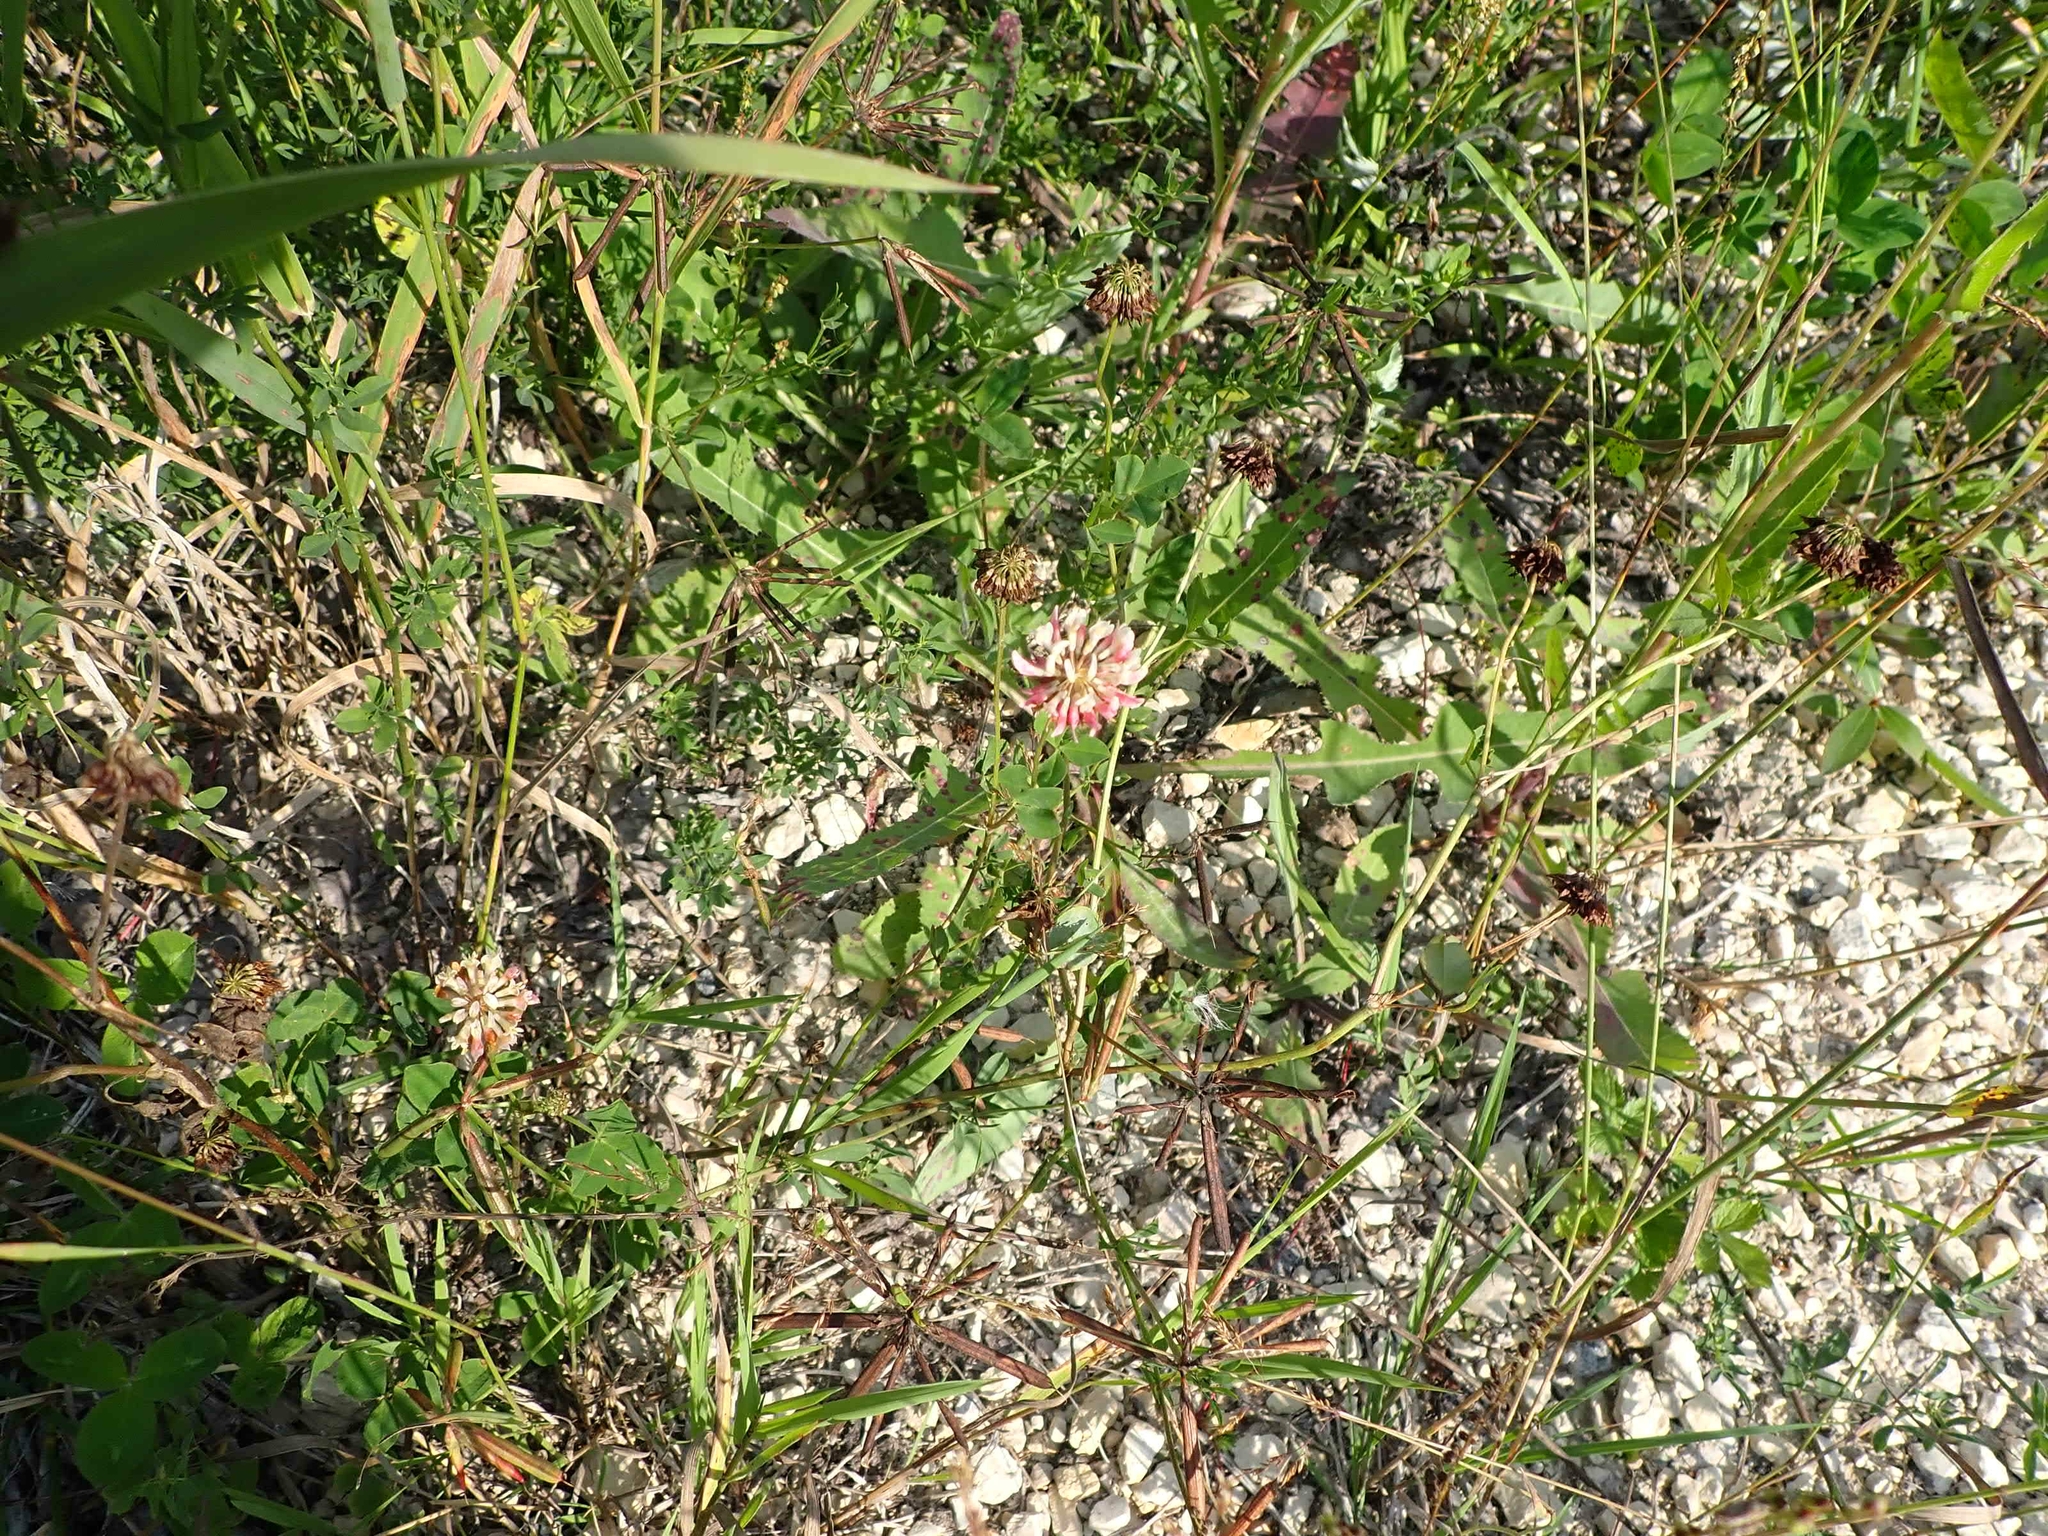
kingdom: Plantae
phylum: Tracheophyta
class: Magnoliopsida
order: Fabales
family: Fabaceae
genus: Trifolium
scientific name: Trifolium hybridum
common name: Alsike clover
